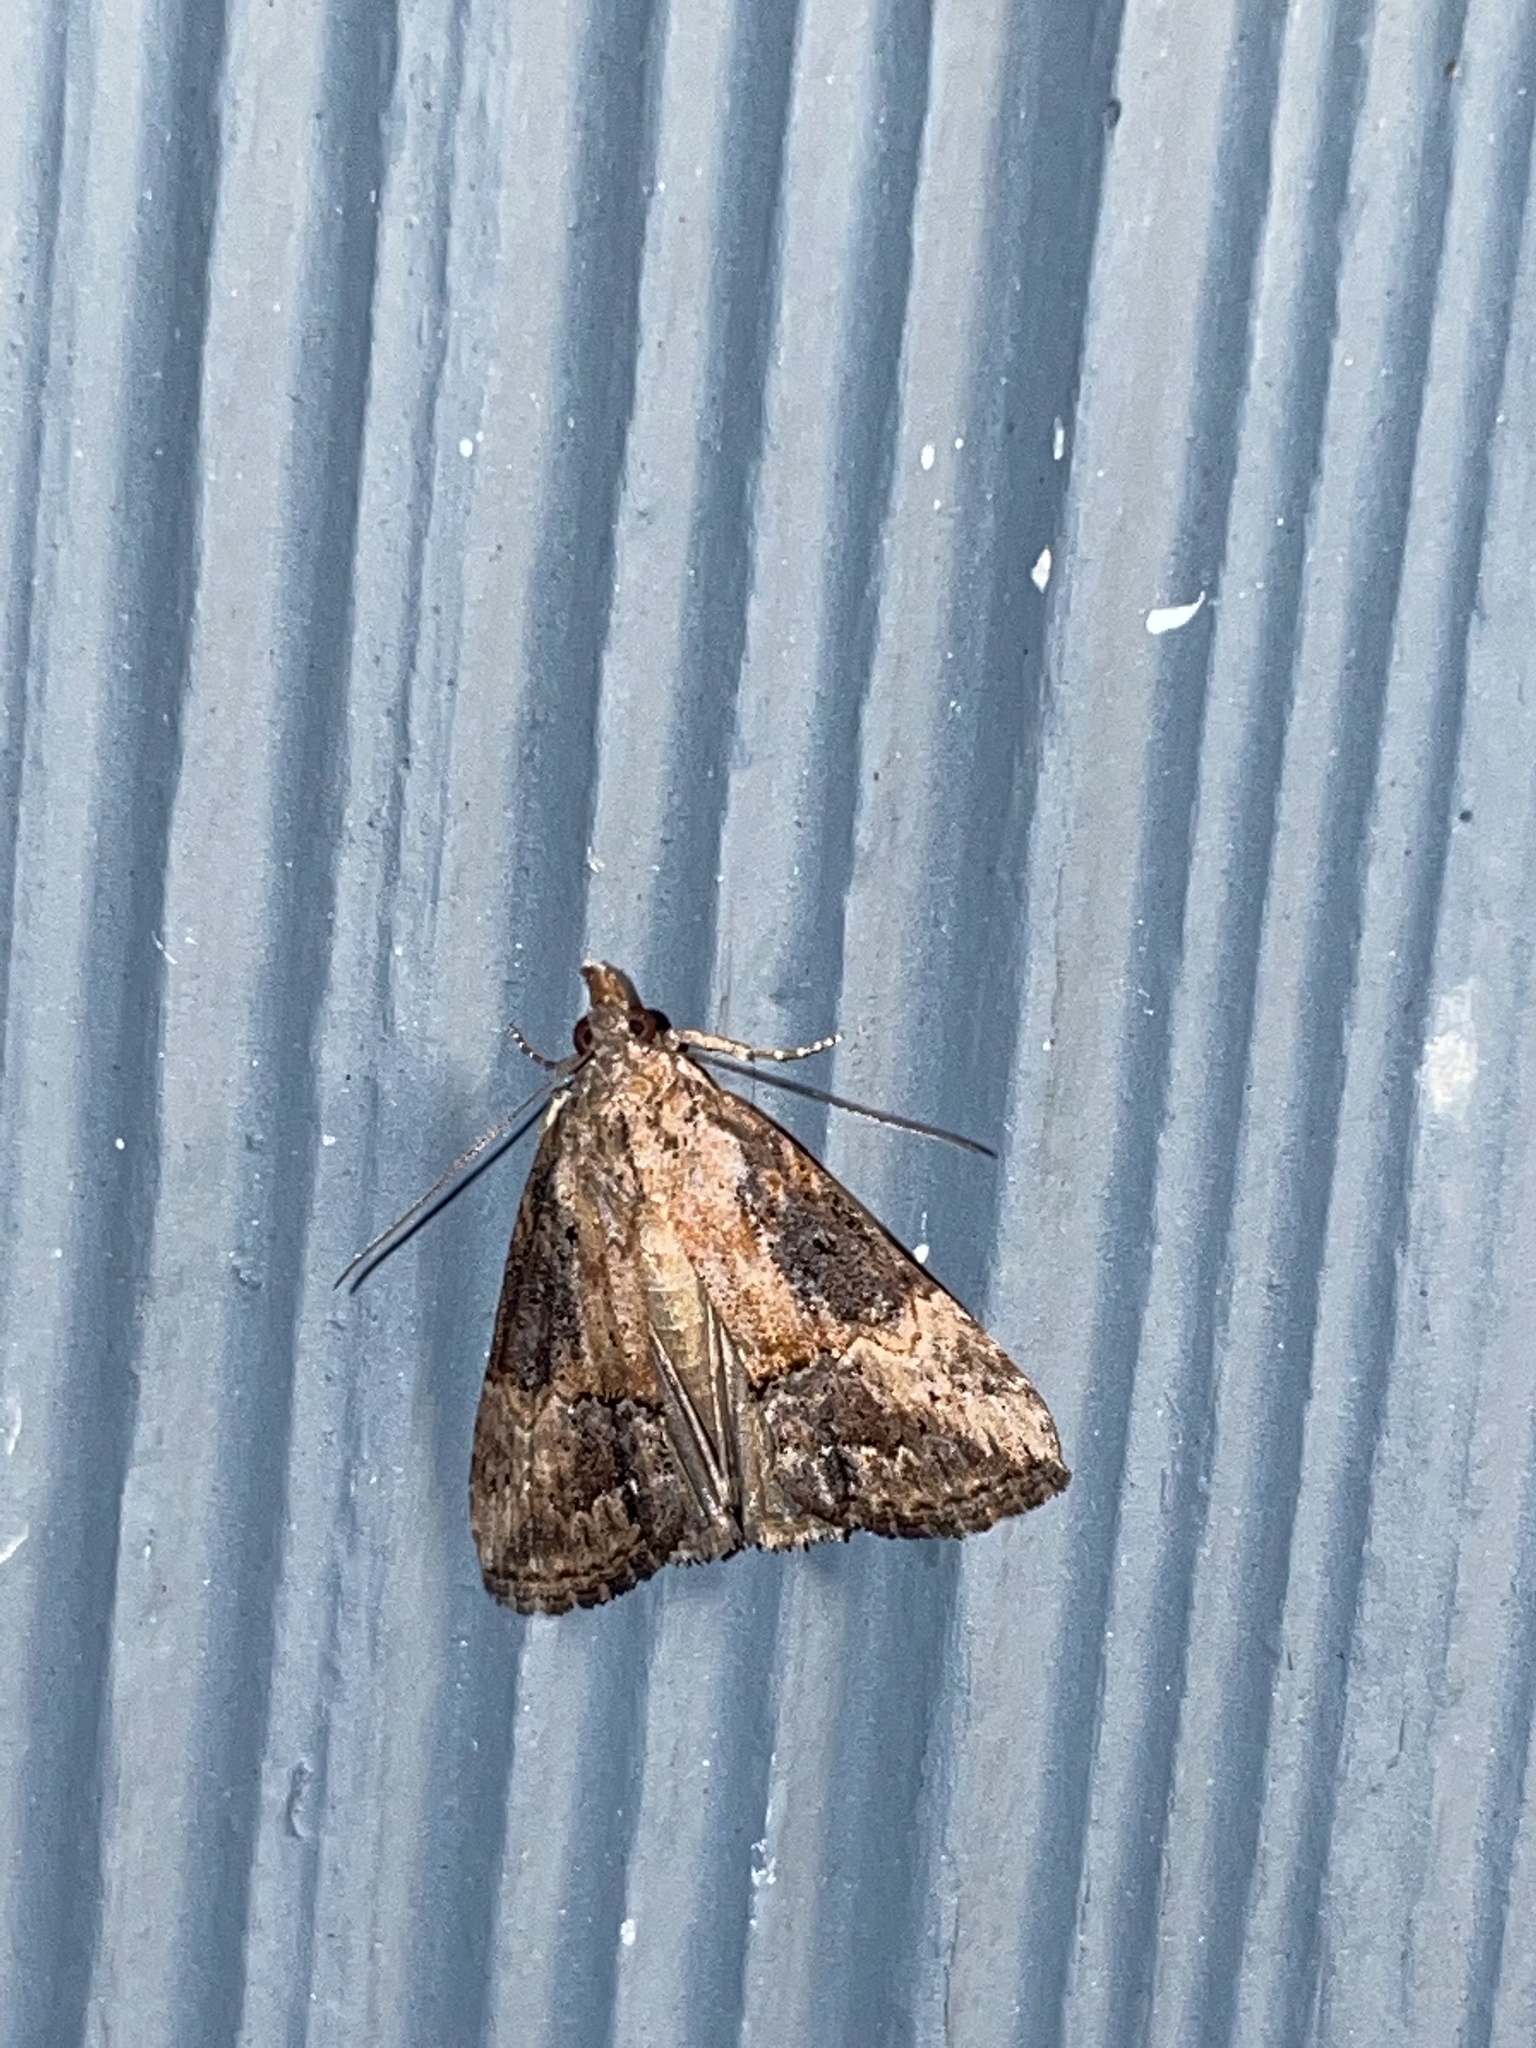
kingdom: Animalia
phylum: Arthropoda
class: Insecta
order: Lepidoptera
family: Erebidae
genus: Hypena
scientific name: Hypena scabra
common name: Green cloverworm
